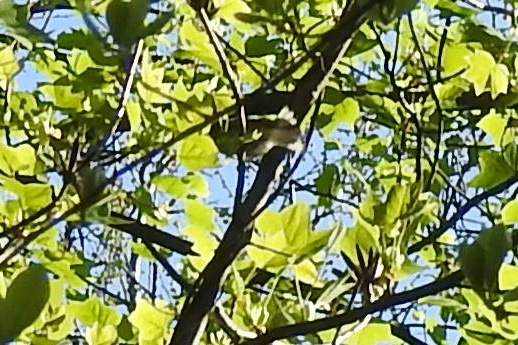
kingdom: Animalia
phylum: Chordata
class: Aves
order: Passeriformes
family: Parulidae
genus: Setophaga
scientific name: Setophaga ruticilla
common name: American redstart
